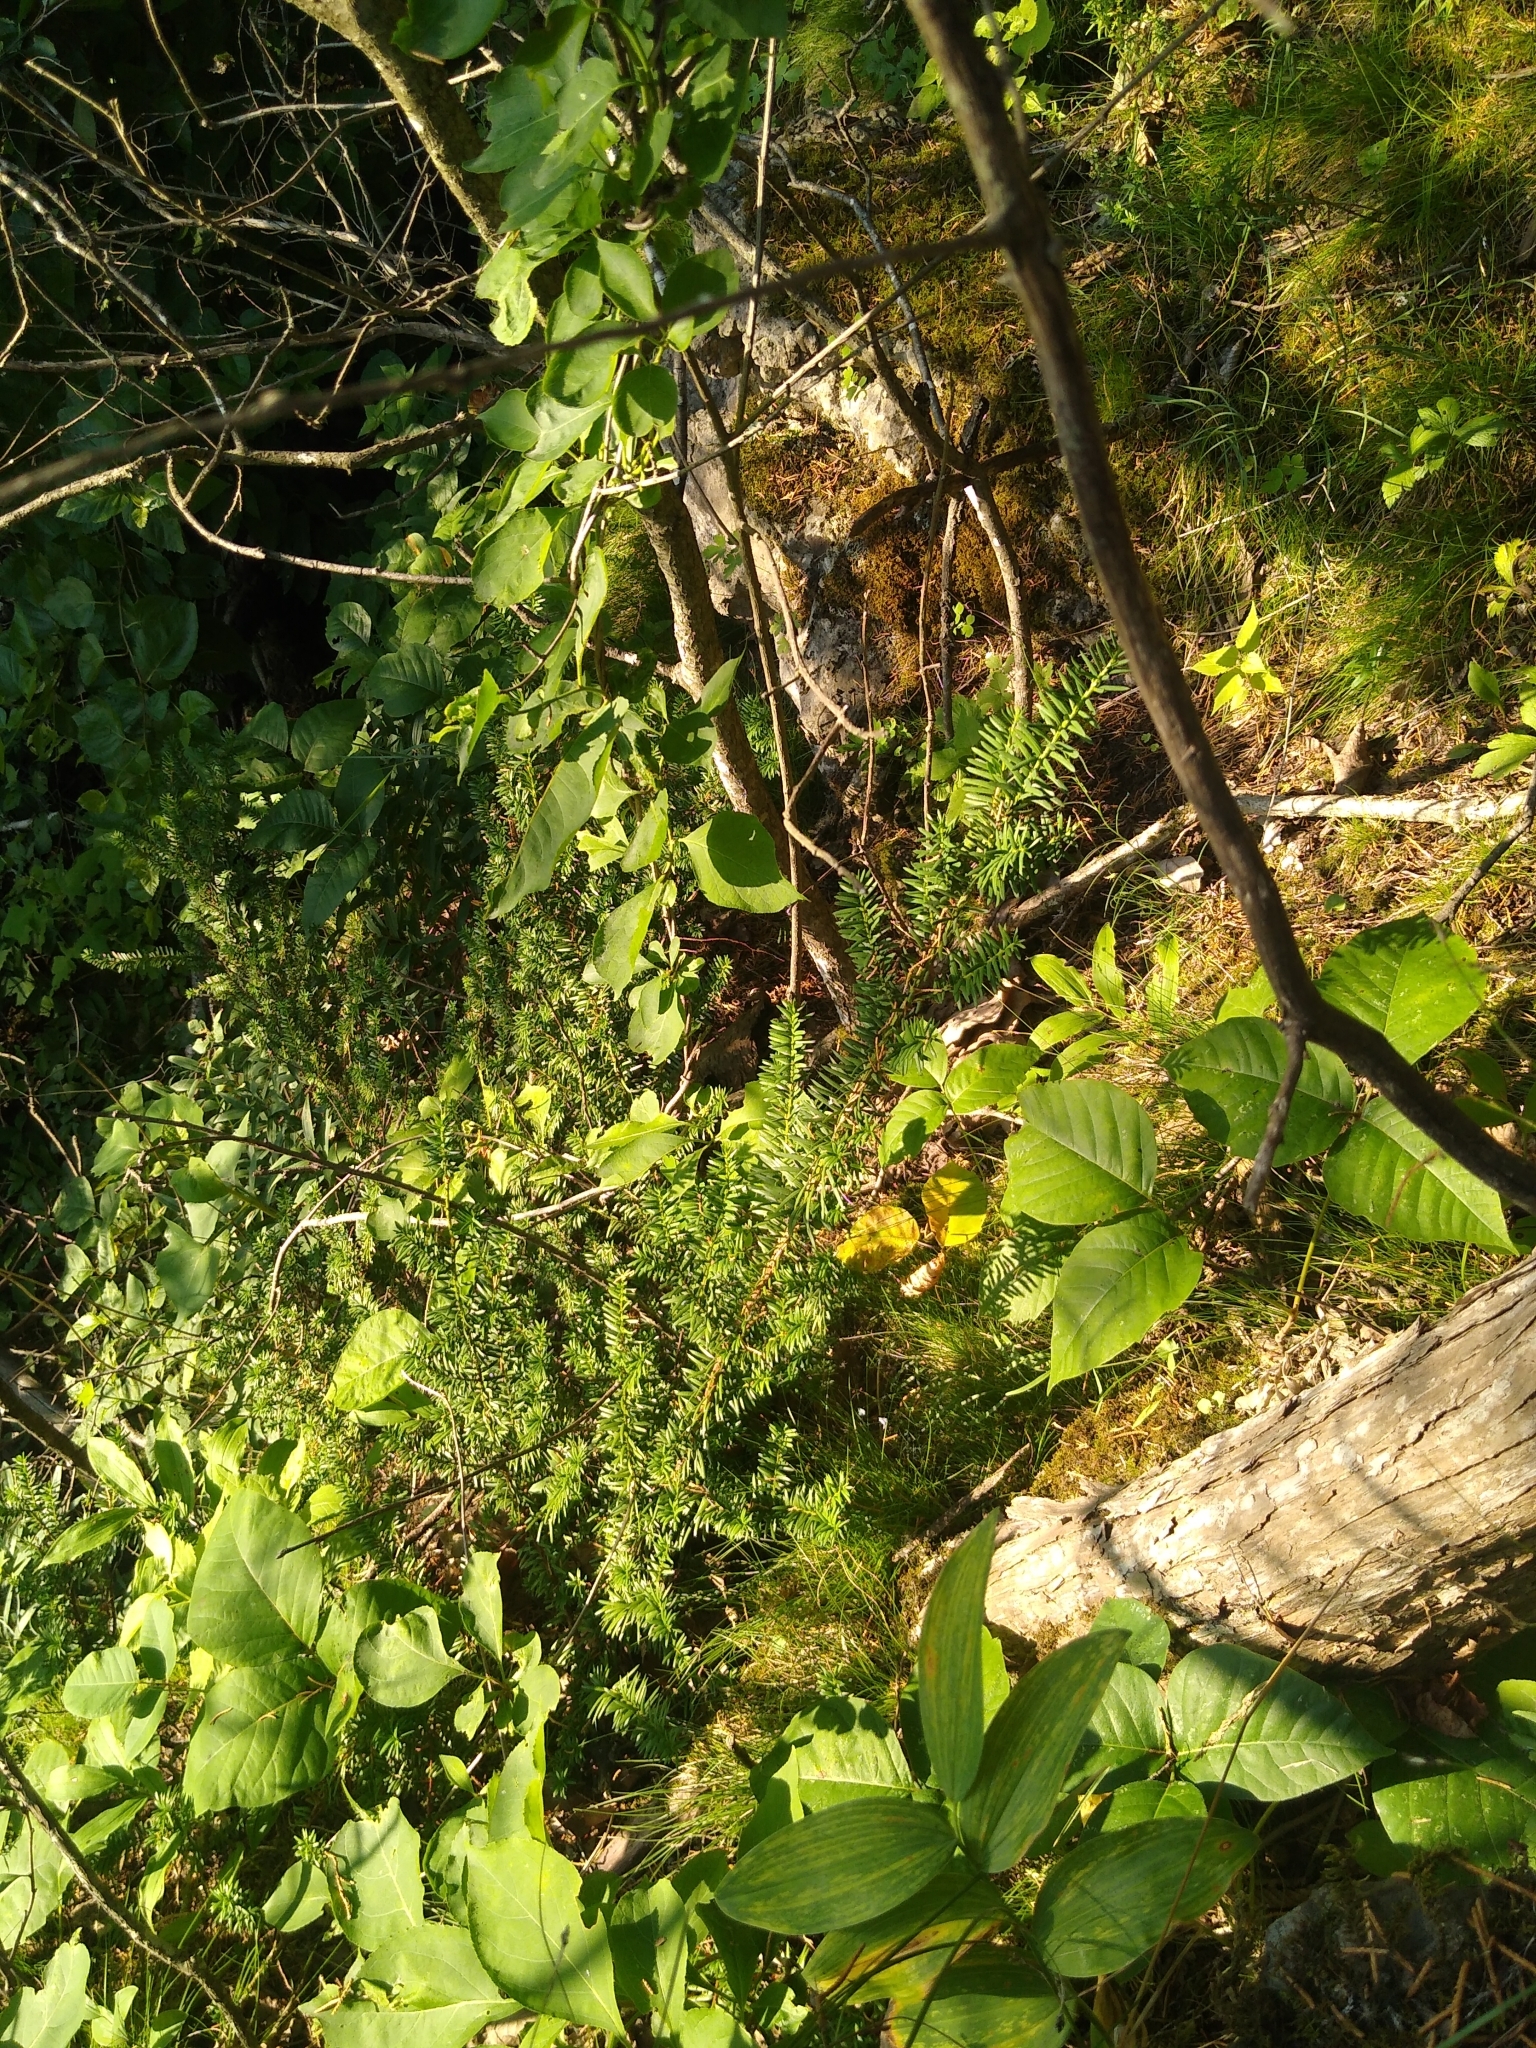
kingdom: Plantae
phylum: Tracheophyta
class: Pinopsida
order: Pinales
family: Taxaceae
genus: Taxus
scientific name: Taxus canadensis
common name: American yew
